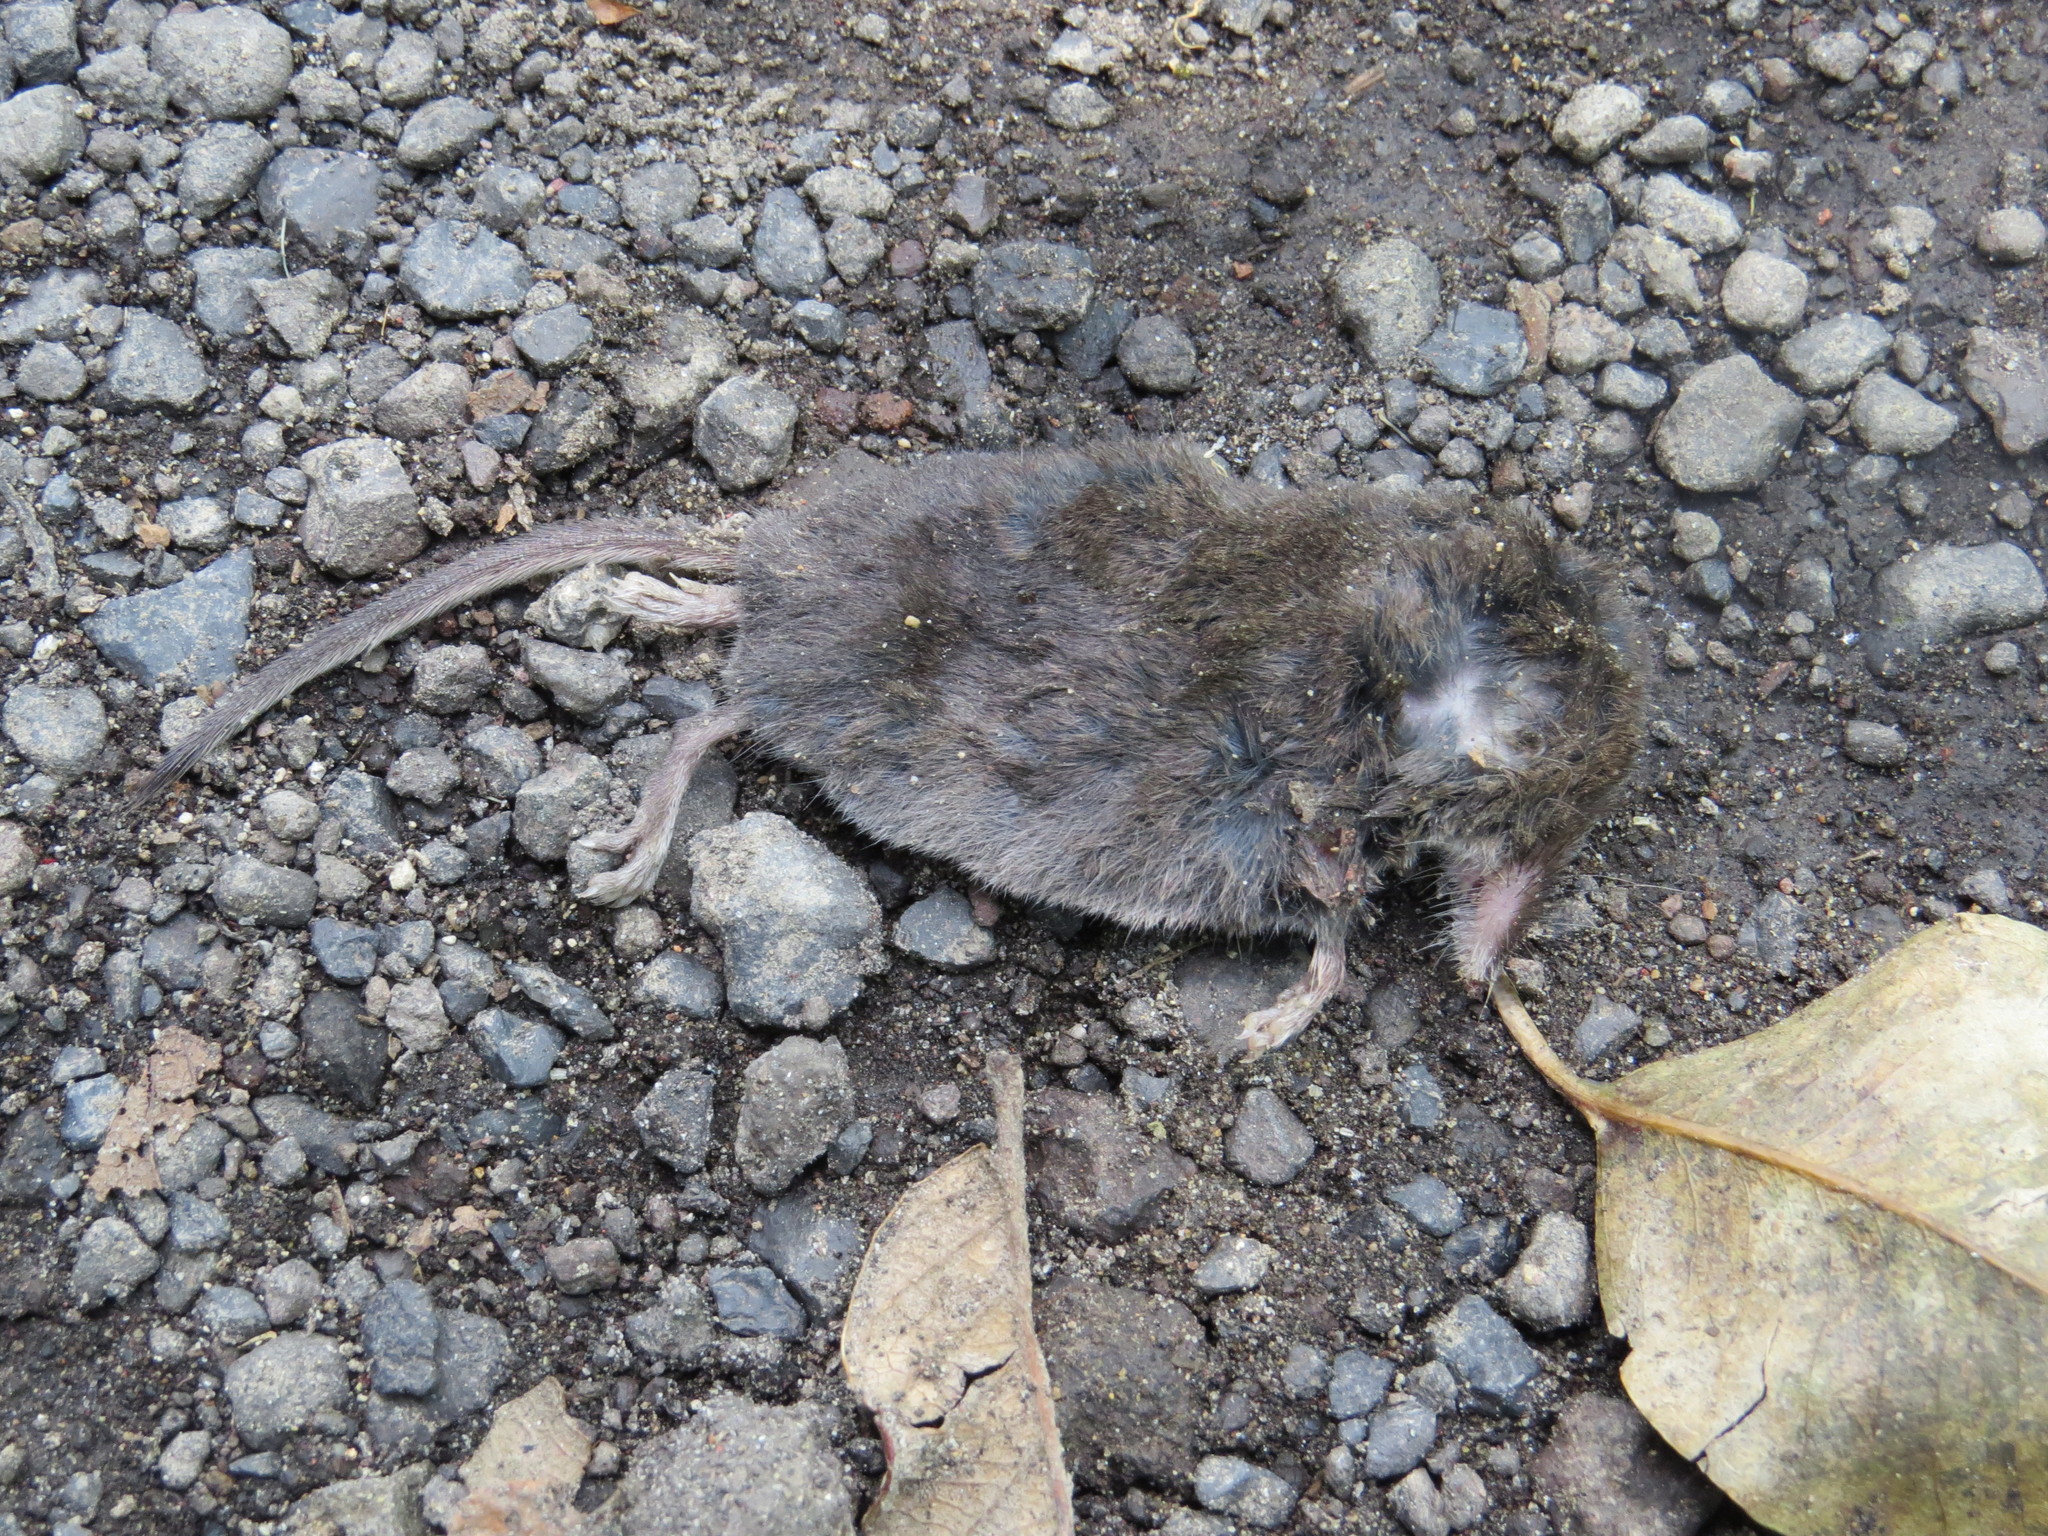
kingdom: Animalia
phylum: Chordata
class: Mammalia
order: Soricomorpha
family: Soricidae
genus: Sorex
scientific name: Sorex saussurei
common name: Saussure's shrew
